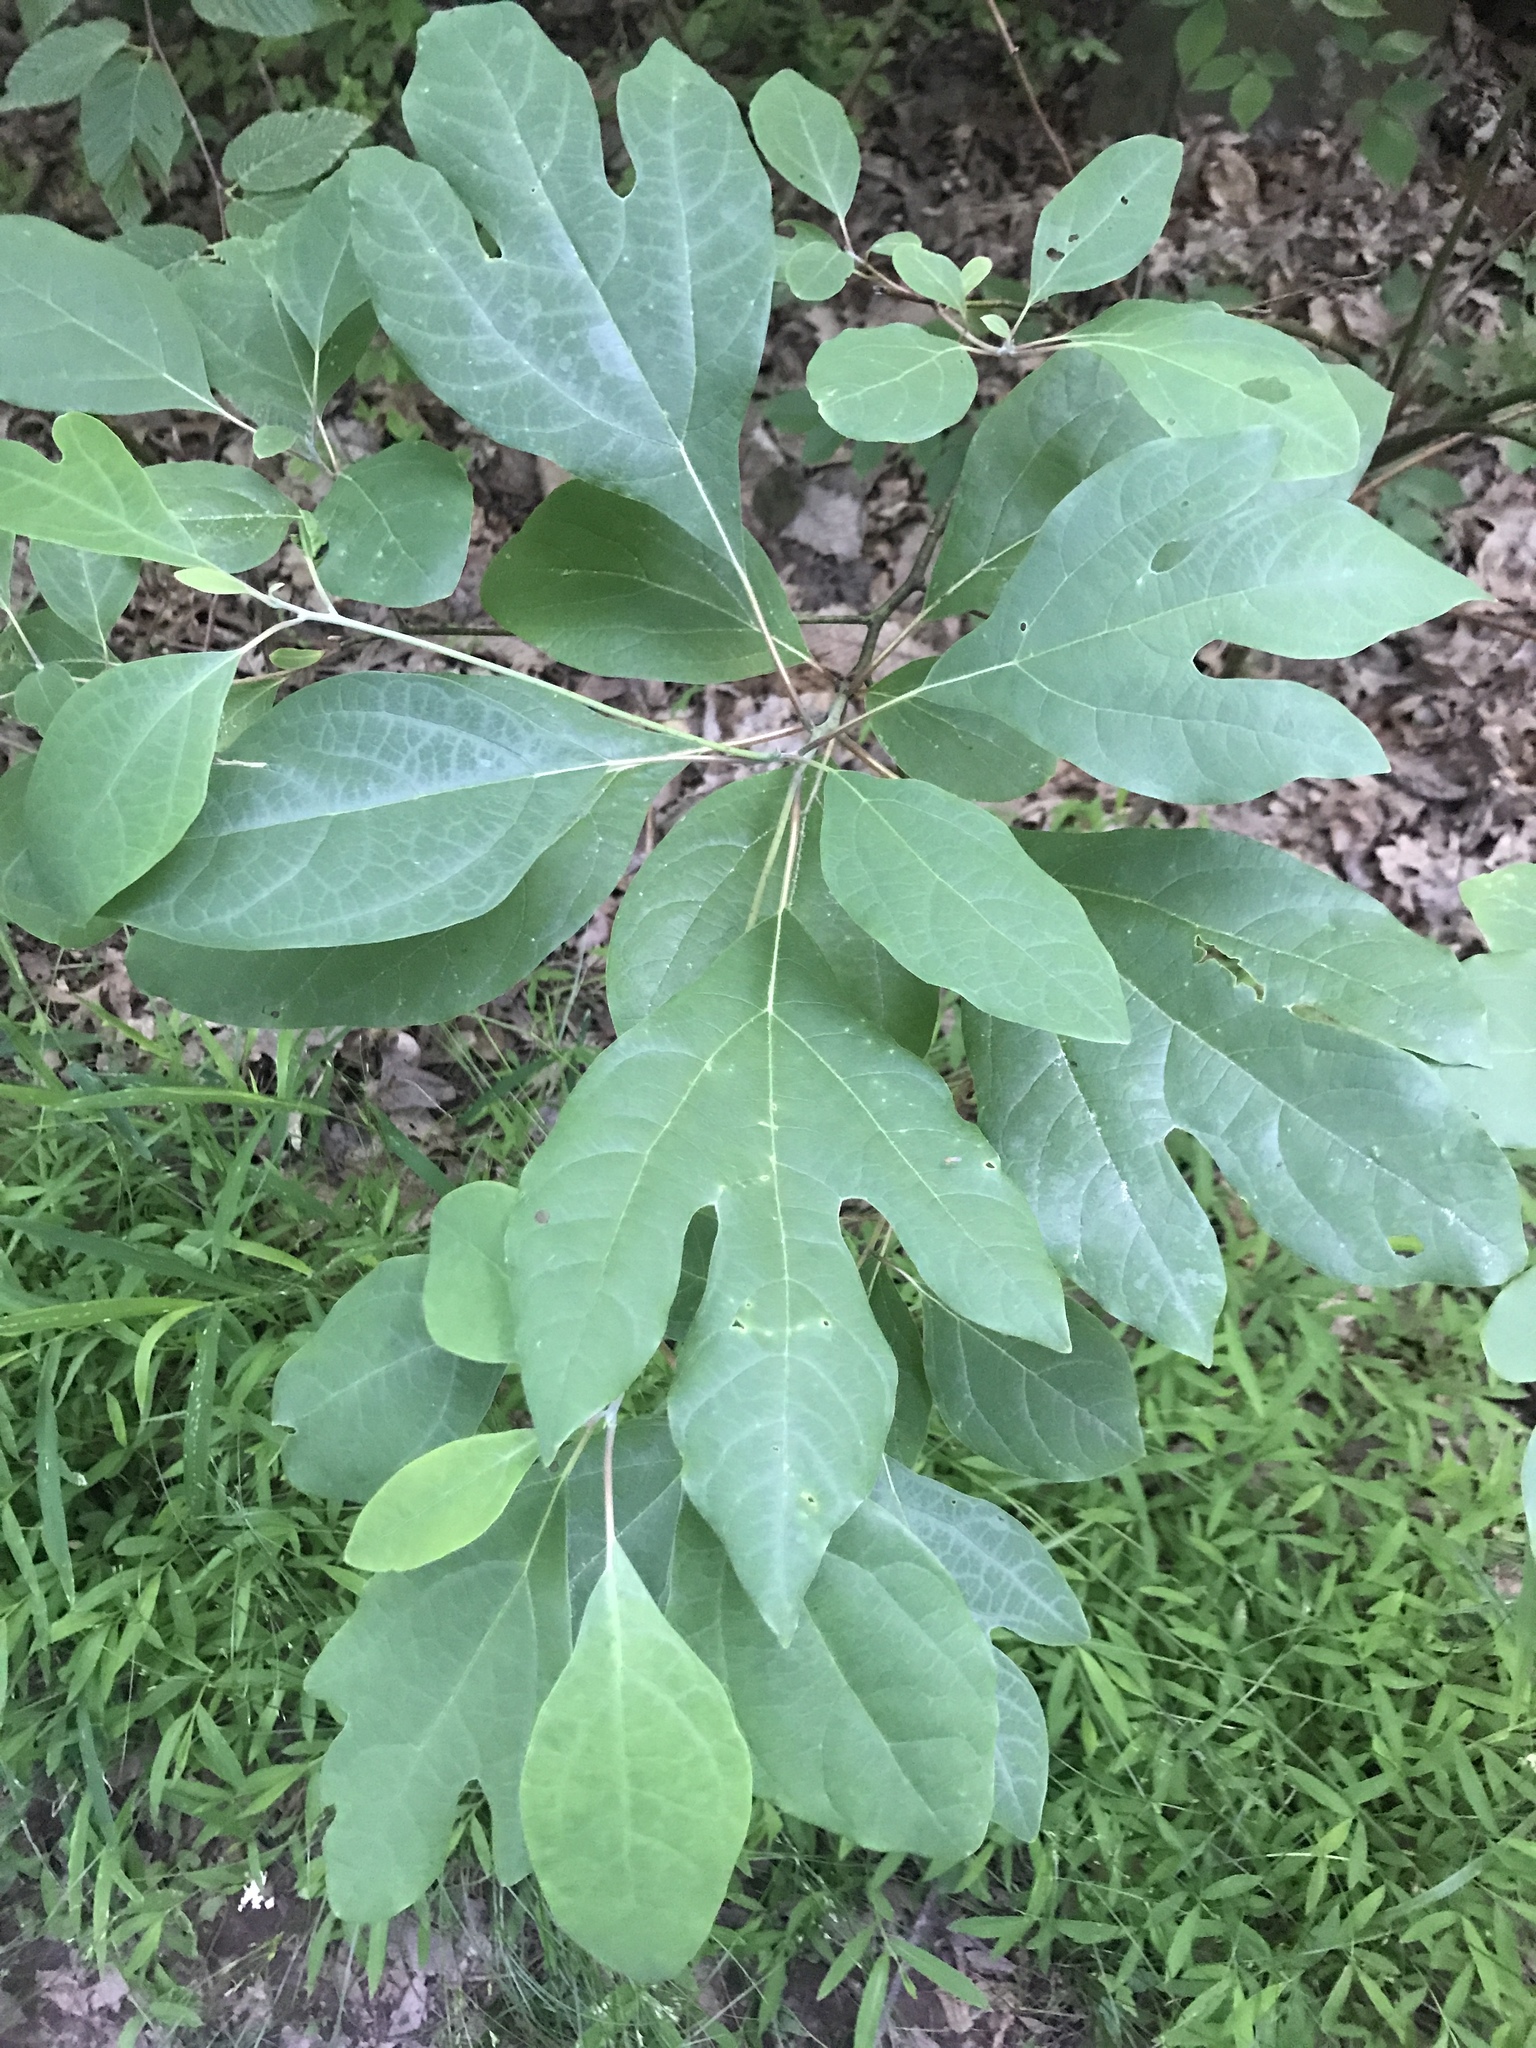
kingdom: Plantae
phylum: Tracheophyta
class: Magnoliopsida
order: Laurales
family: Lauraceae
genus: Sassafras
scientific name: Sassafras albidum
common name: Sassafras
